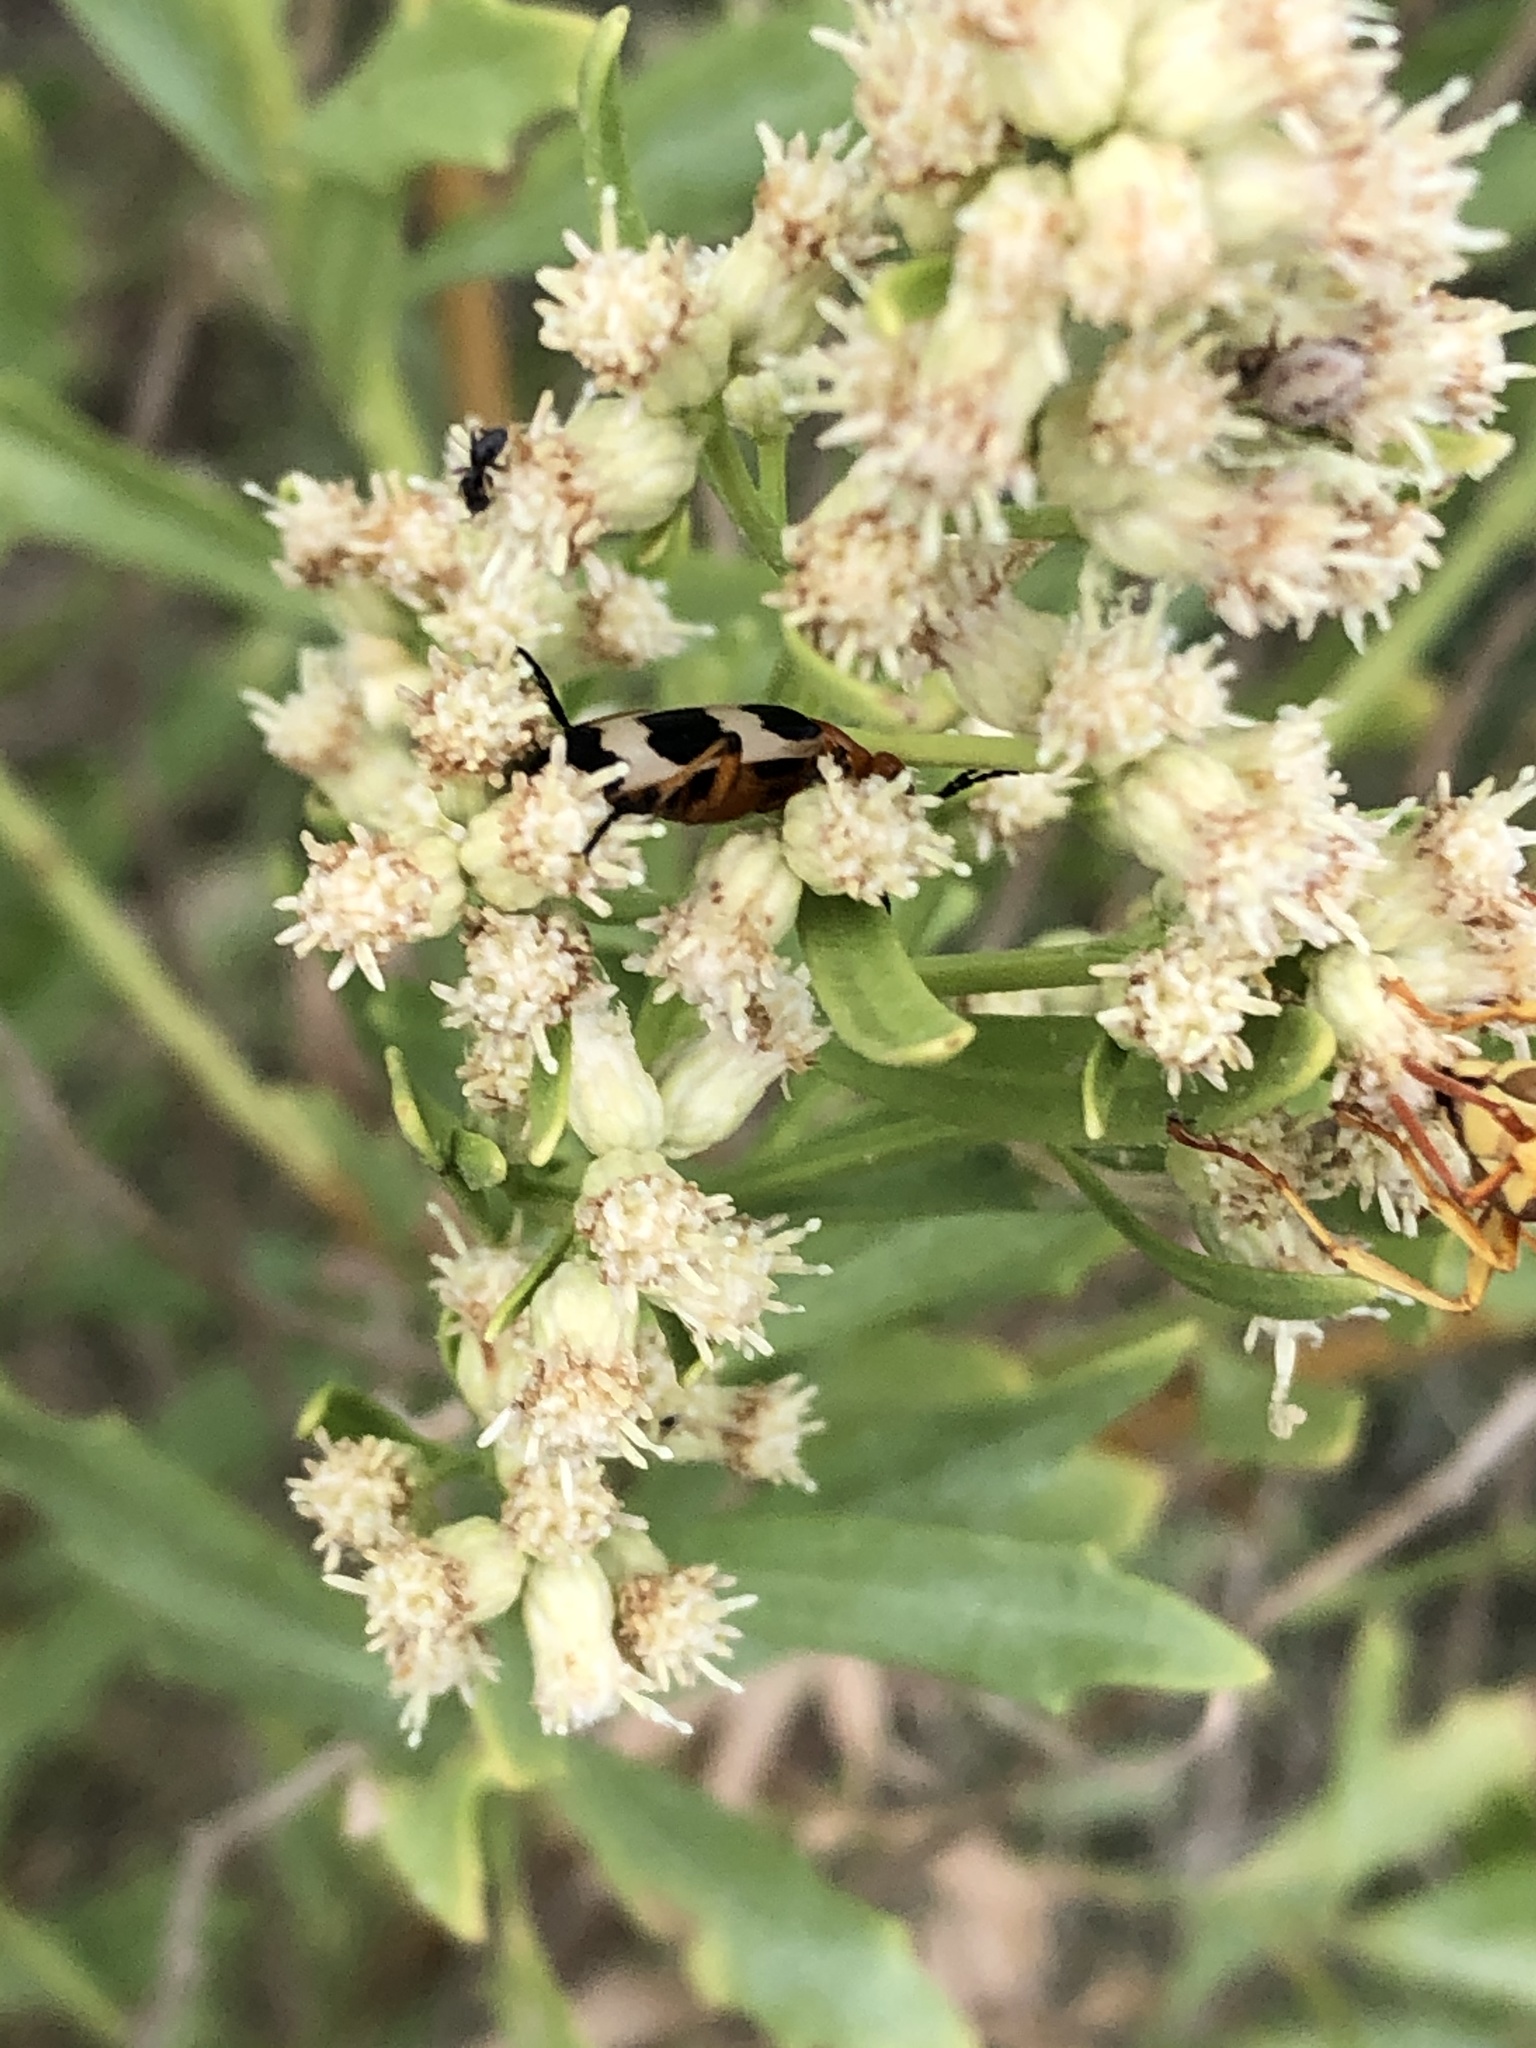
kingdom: Animalia
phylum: Arthropoda
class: Insecta
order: Coleoptera
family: Meloidae
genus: Pyrota
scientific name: Pyrota palpalis
